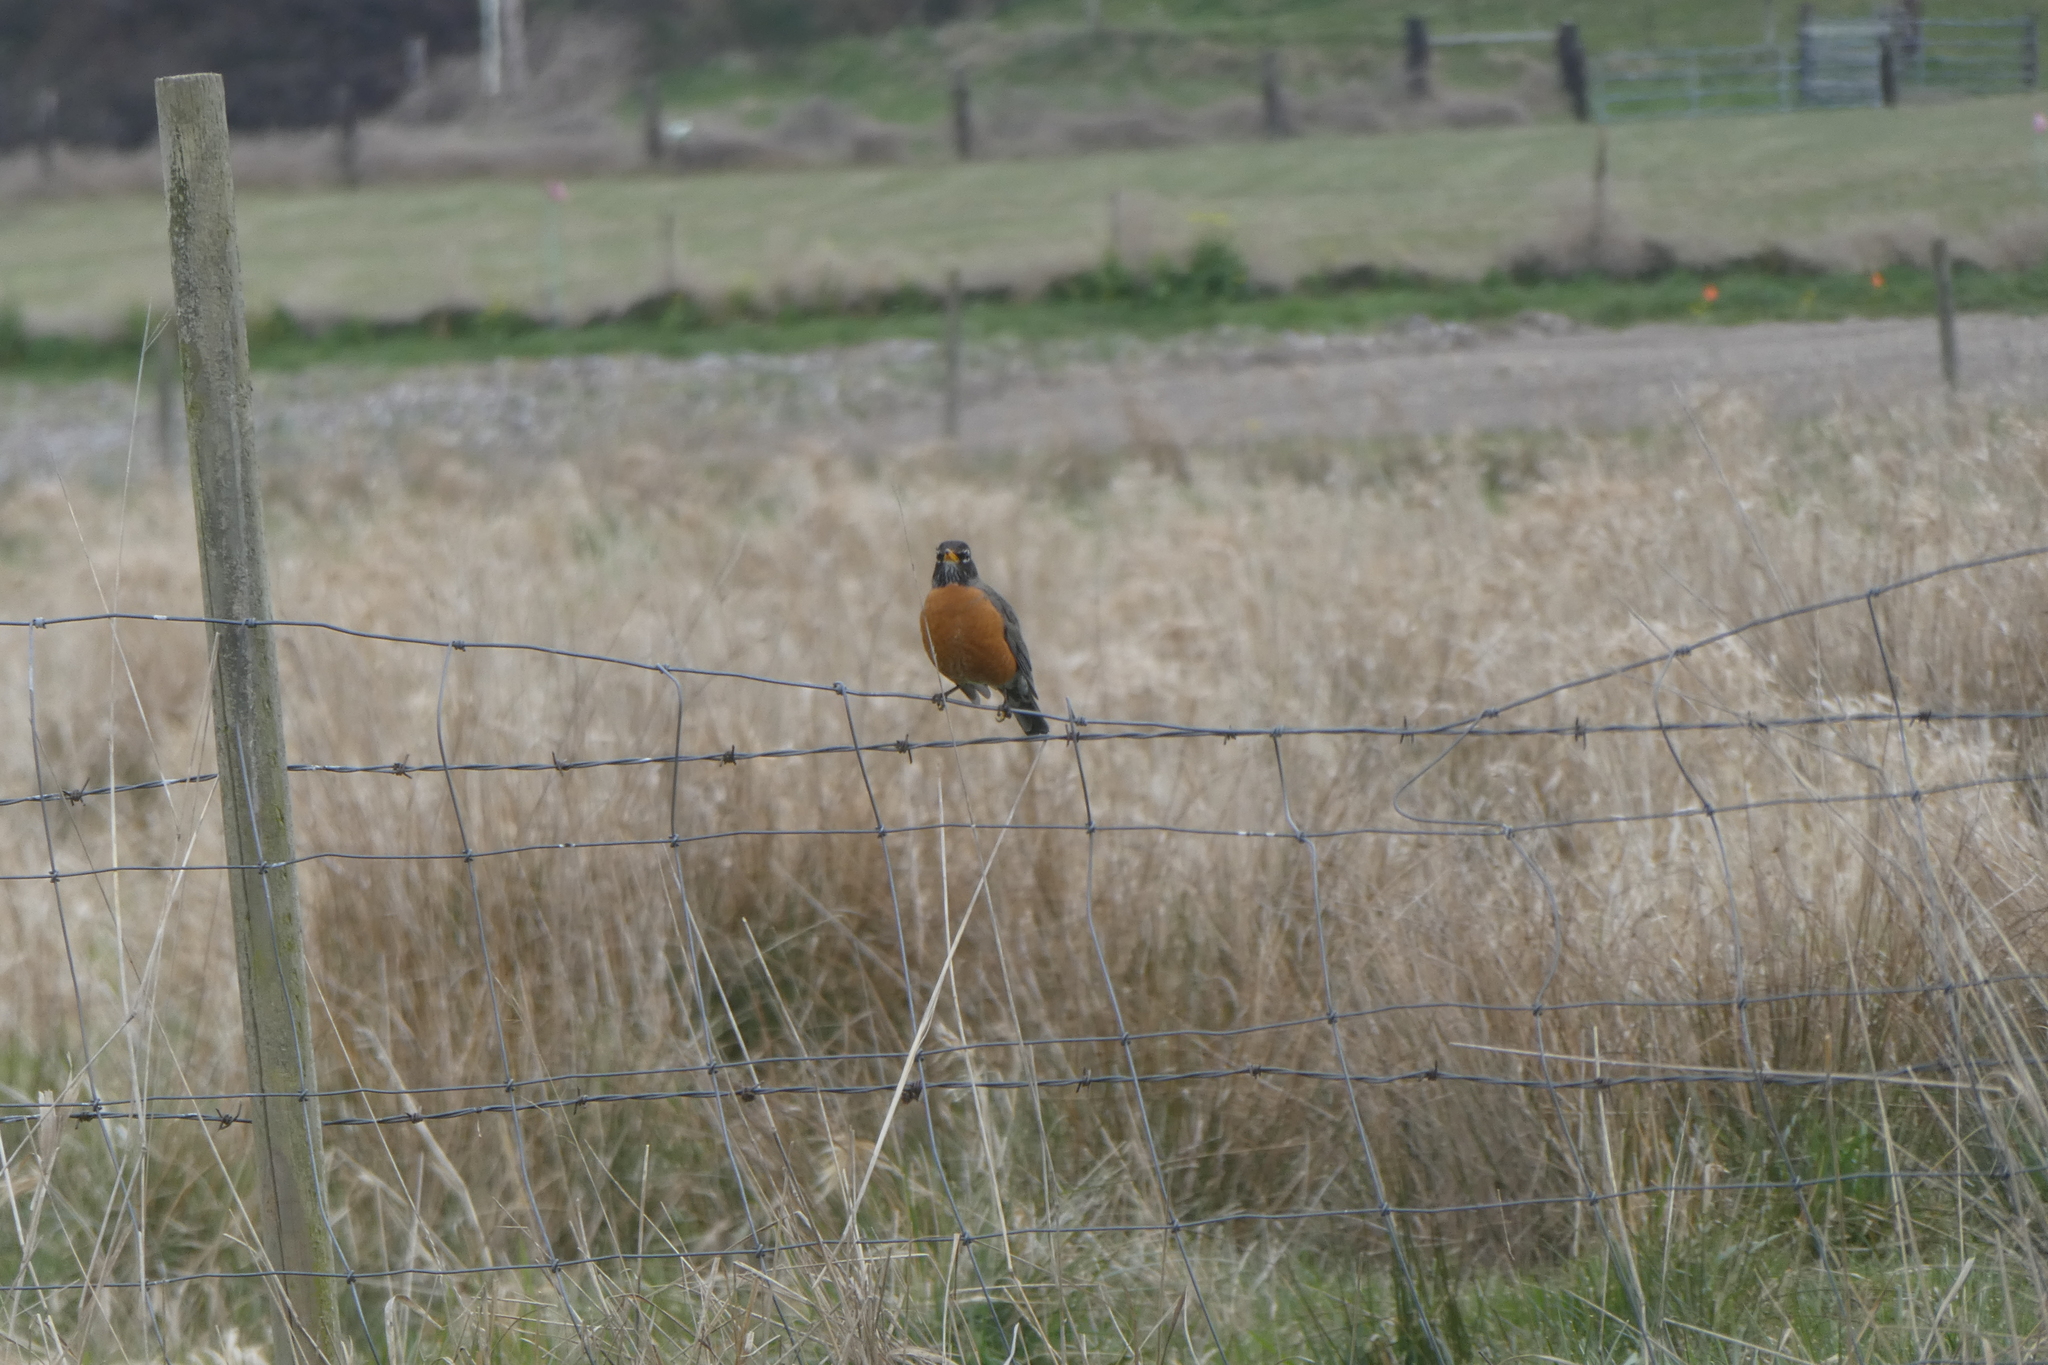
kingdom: Animalia
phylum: Chordata
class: Aves
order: Passeriformes
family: Turdidae
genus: Turdus
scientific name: Turdus migratorius
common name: American robin
